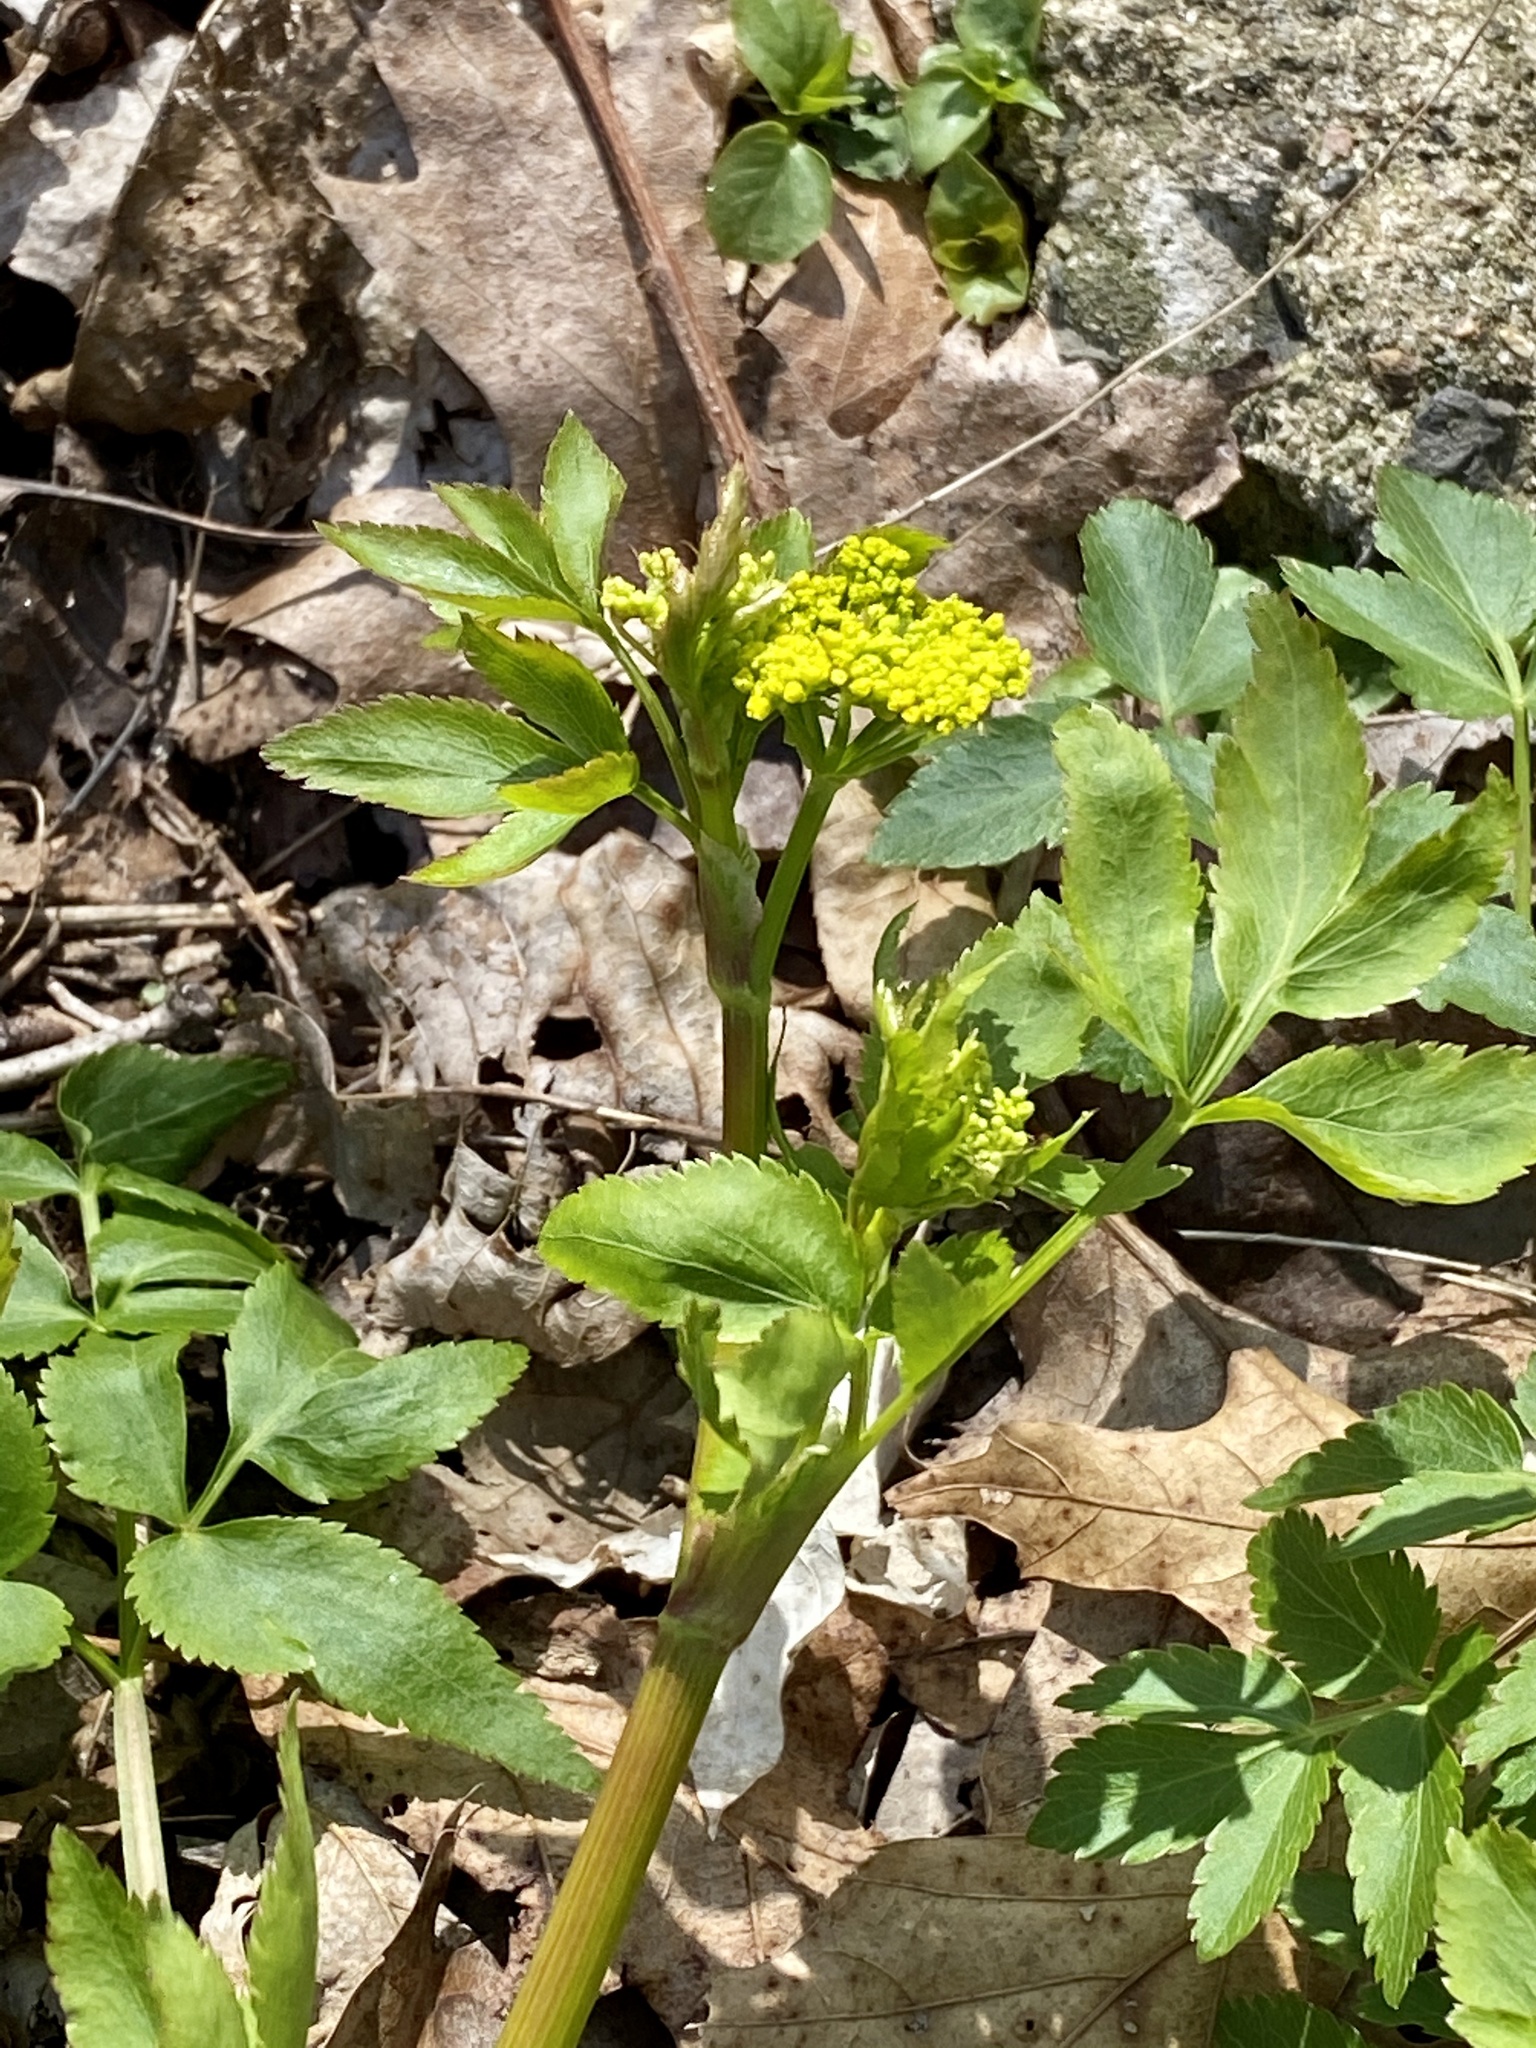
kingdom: Plantae
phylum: Tracheophyta
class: Magnoliopsida
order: Apiales
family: Apiaceae
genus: Zizia
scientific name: Zizia aurea
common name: Golden alexanders
